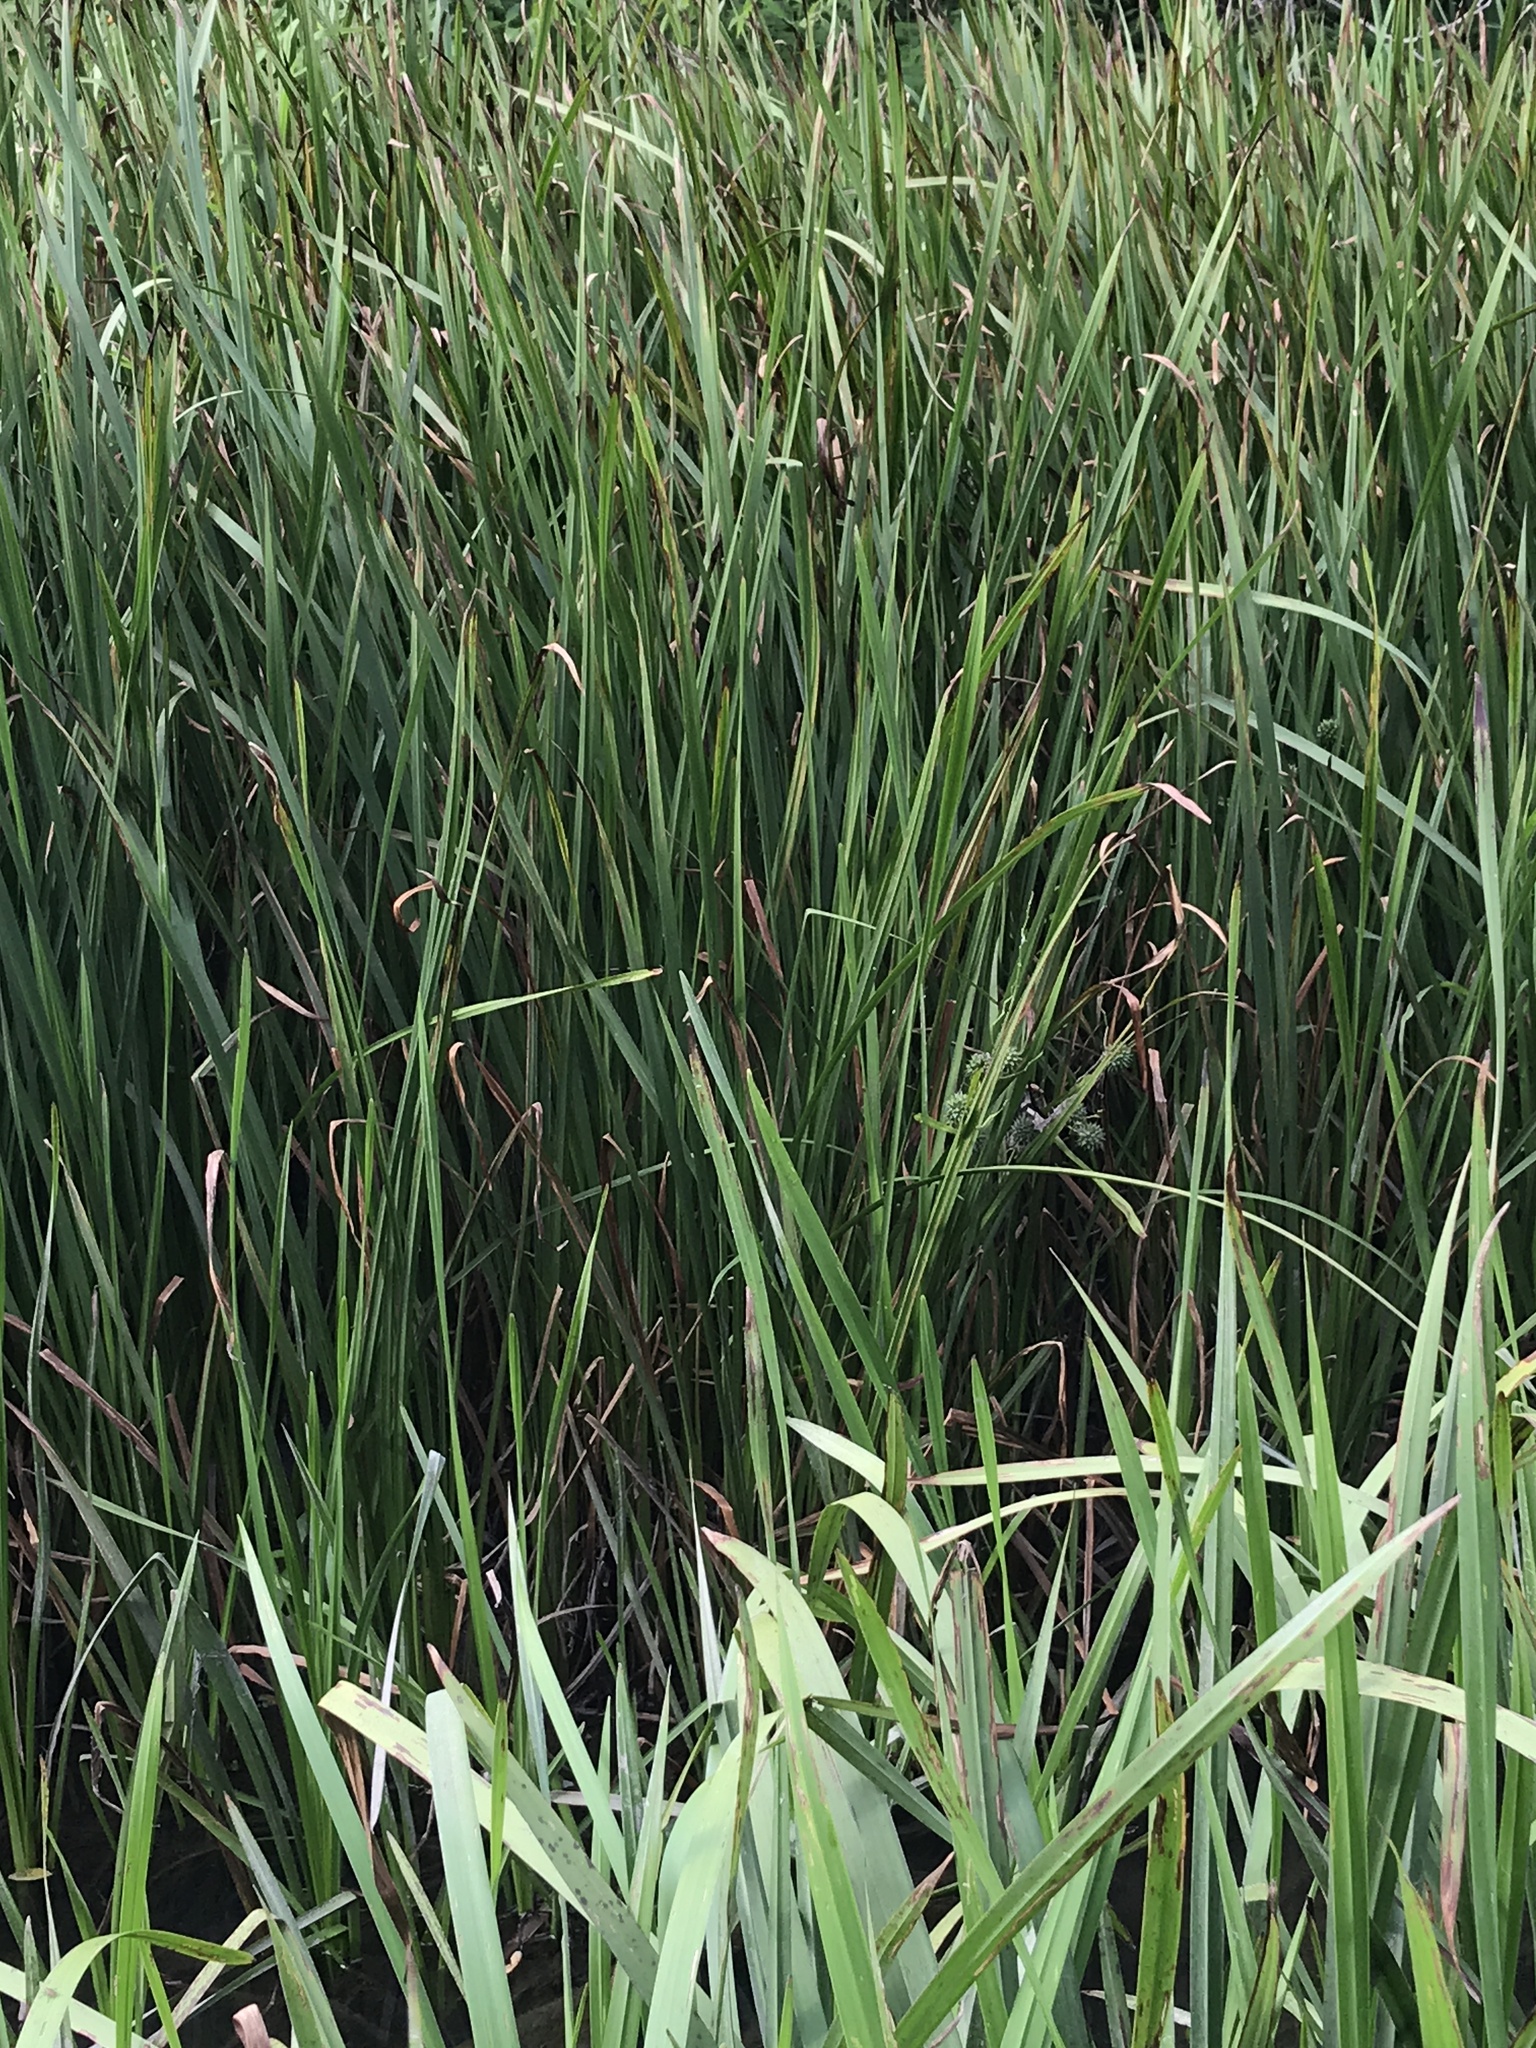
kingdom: Plantae
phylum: Tracheophyta
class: Liliopsida
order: Poales
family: Typhaceae
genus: Sparganium
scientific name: Sparganium eurycarpum
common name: Broad-fruited burreed
